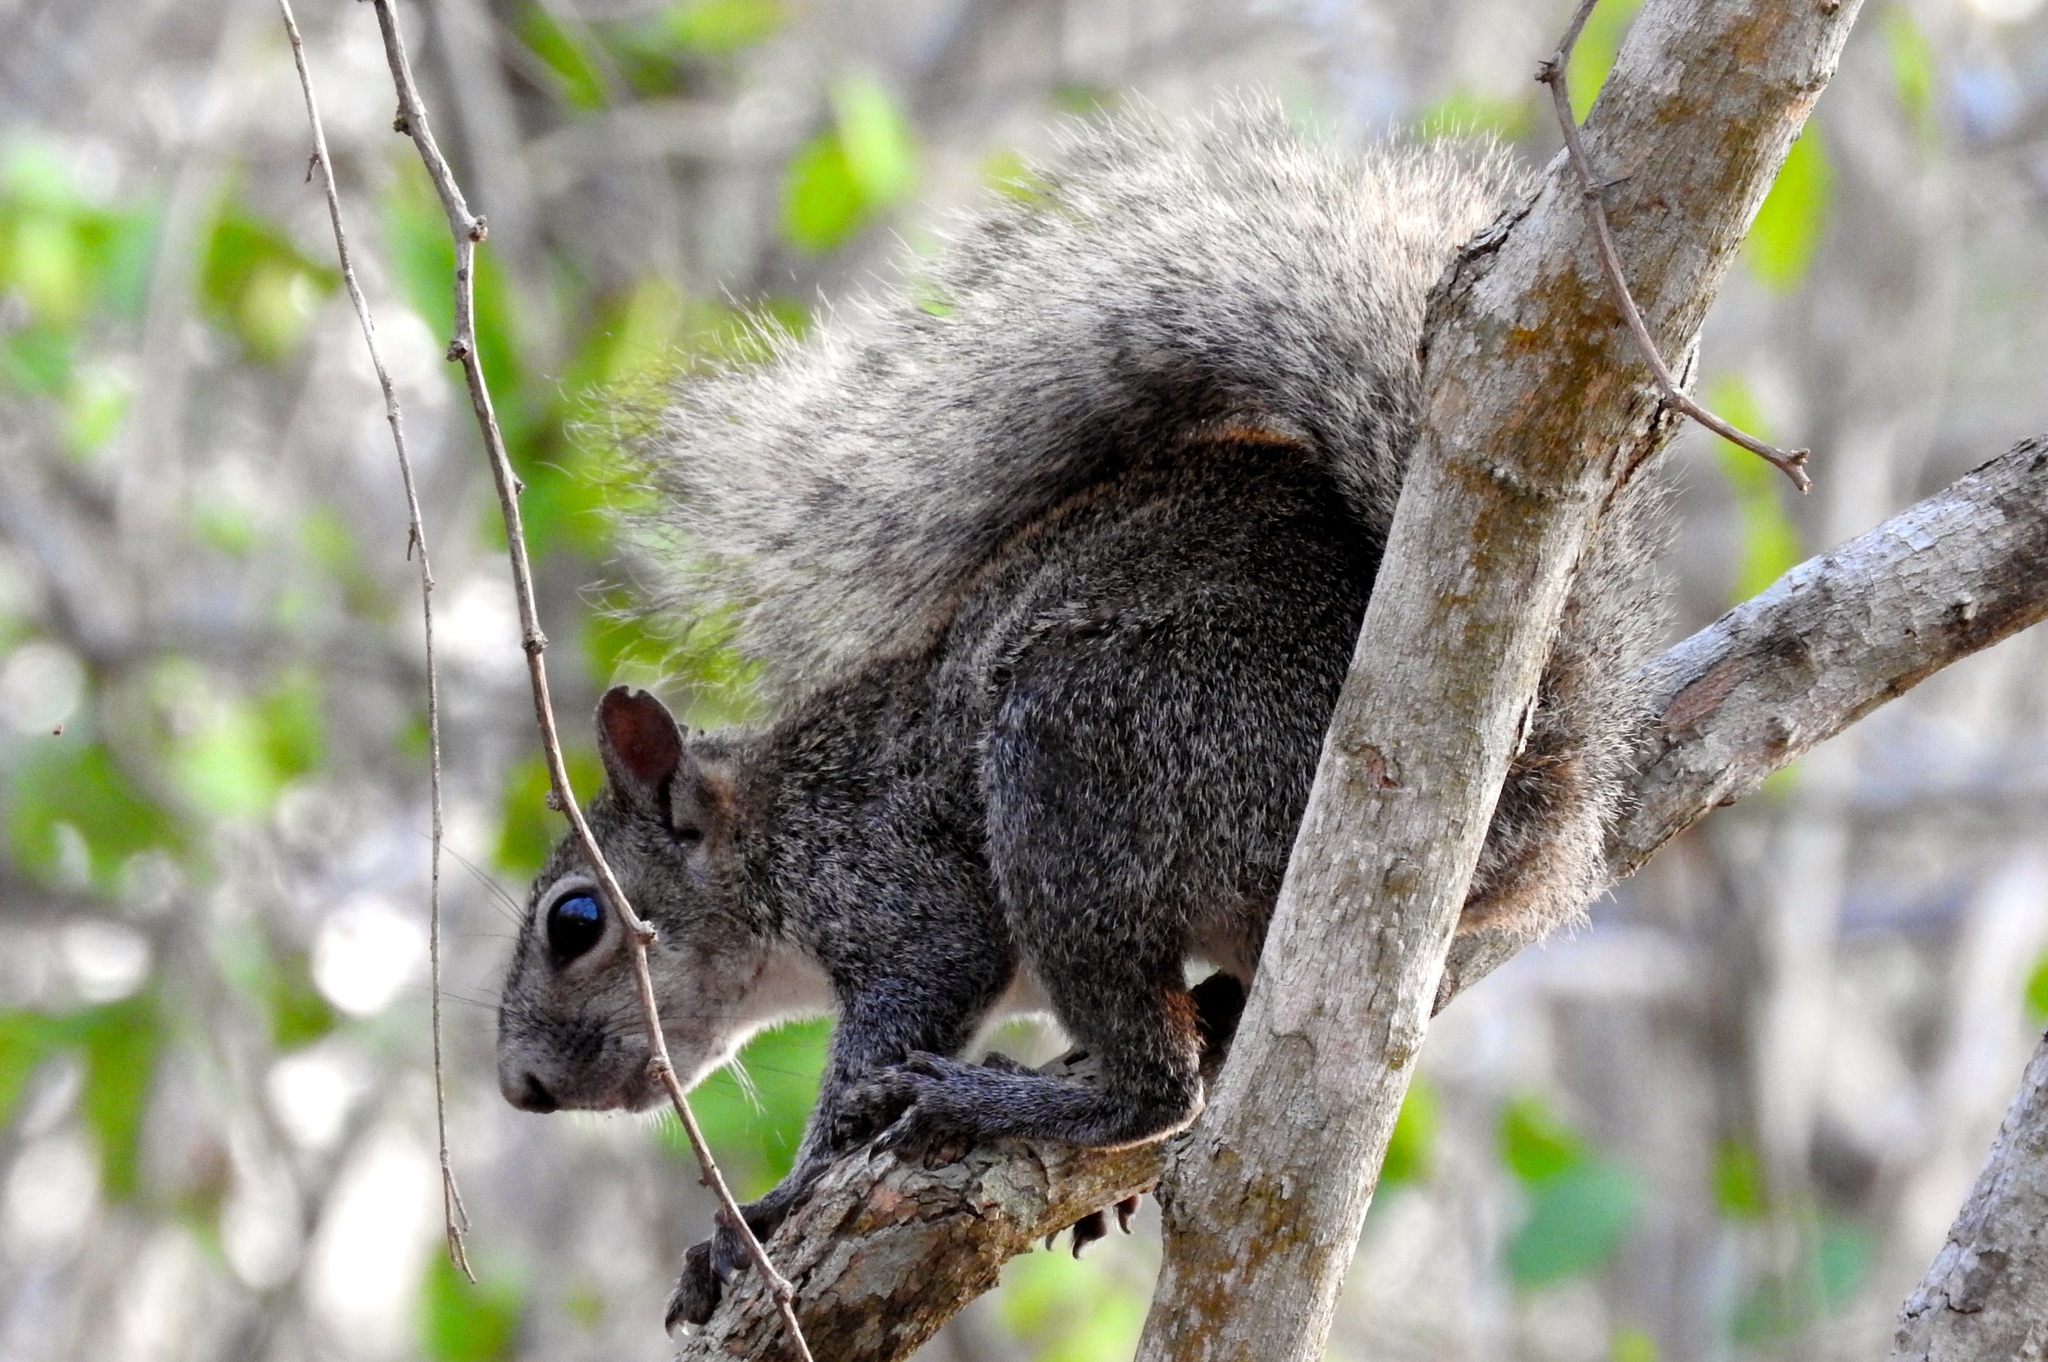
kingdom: Animalia
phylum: Chordata
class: Mammalia
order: Rodentia
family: Sciuridae
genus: Sciurus
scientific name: Sciurus colliaei
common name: Collie's squirrel
